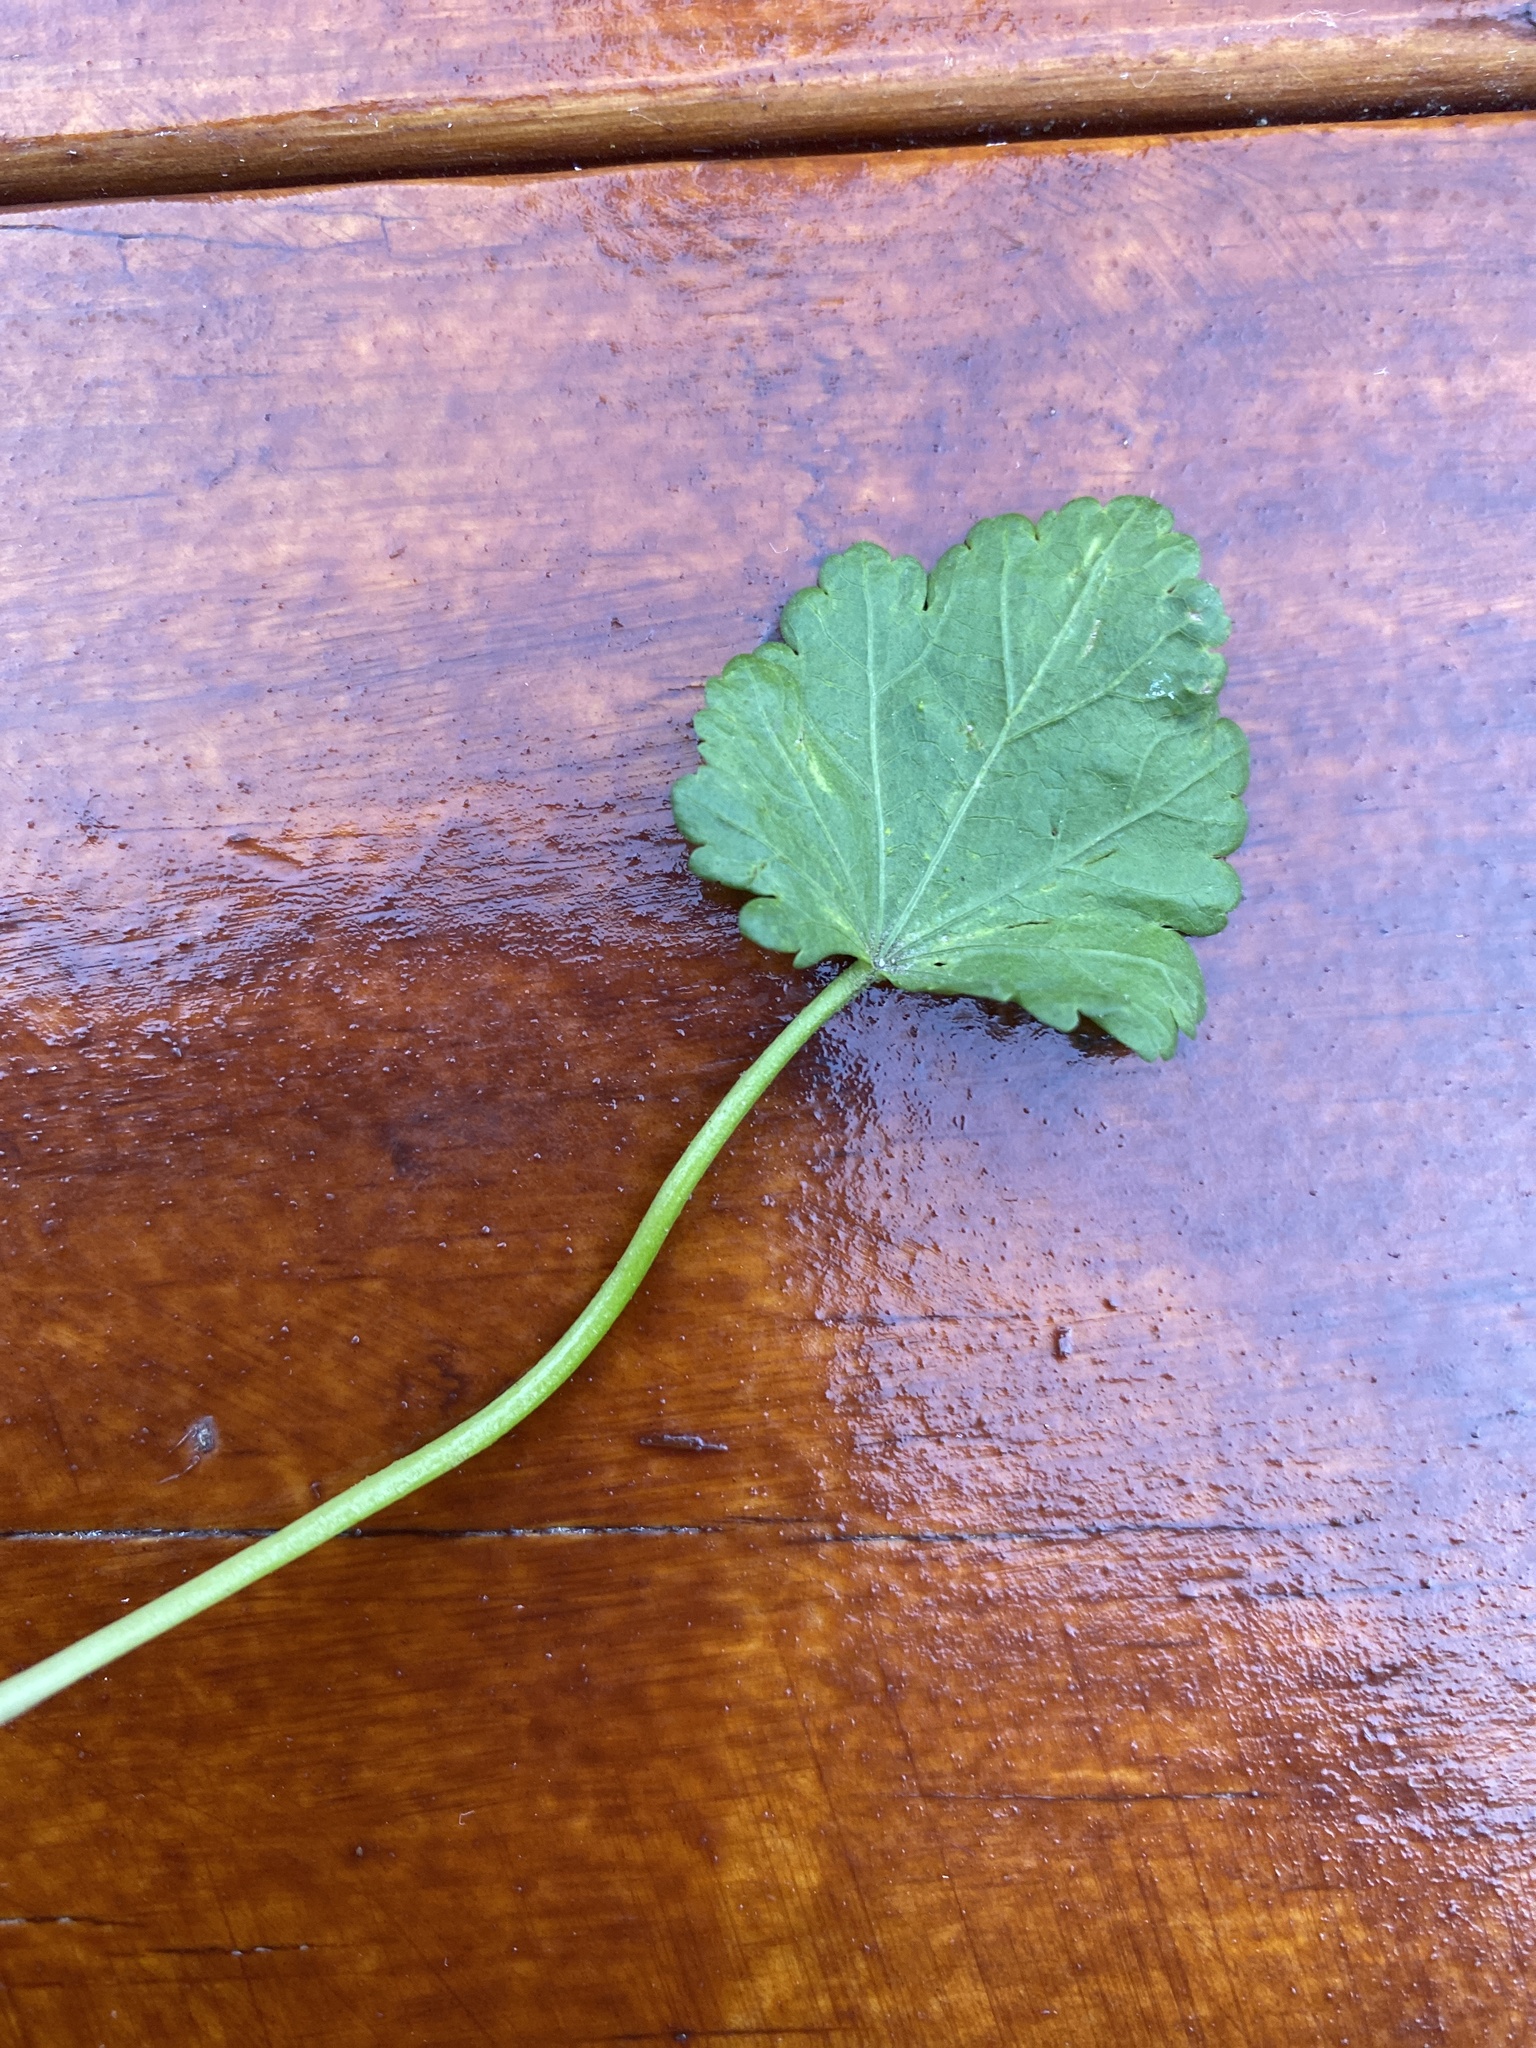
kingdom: Plantae
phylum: Tracheophyta
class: Magnoliopsida
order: Malvales
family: Malvaceae
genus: Malva
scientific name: Malva
